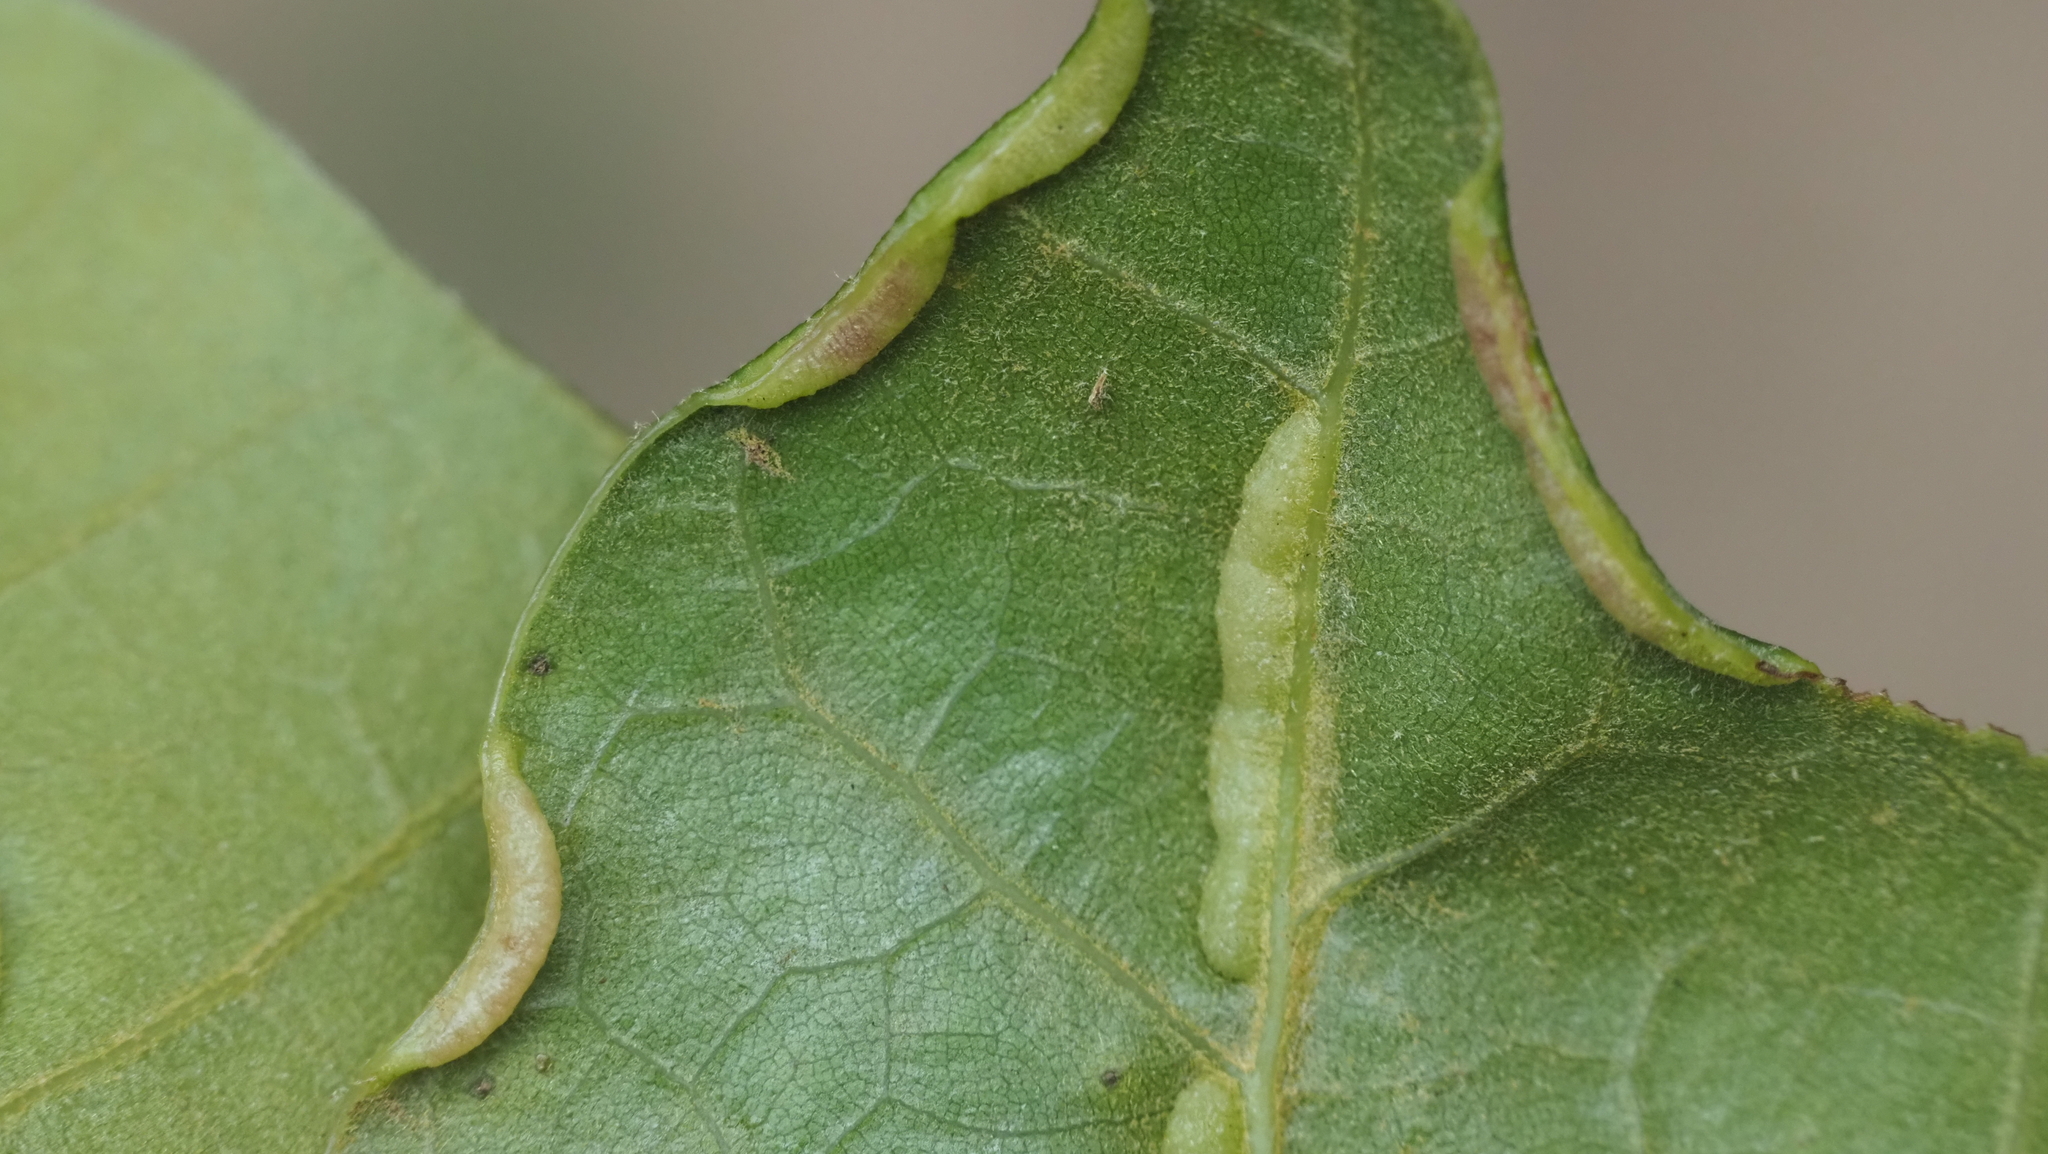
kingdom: Animalia
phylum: Arthropoda
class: Insecta
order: Diptera
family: Cecidomyiidae
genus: Macrodiplosis
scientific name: Macrodiplosis erubescens
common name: Marginal leaf fold gall midge
